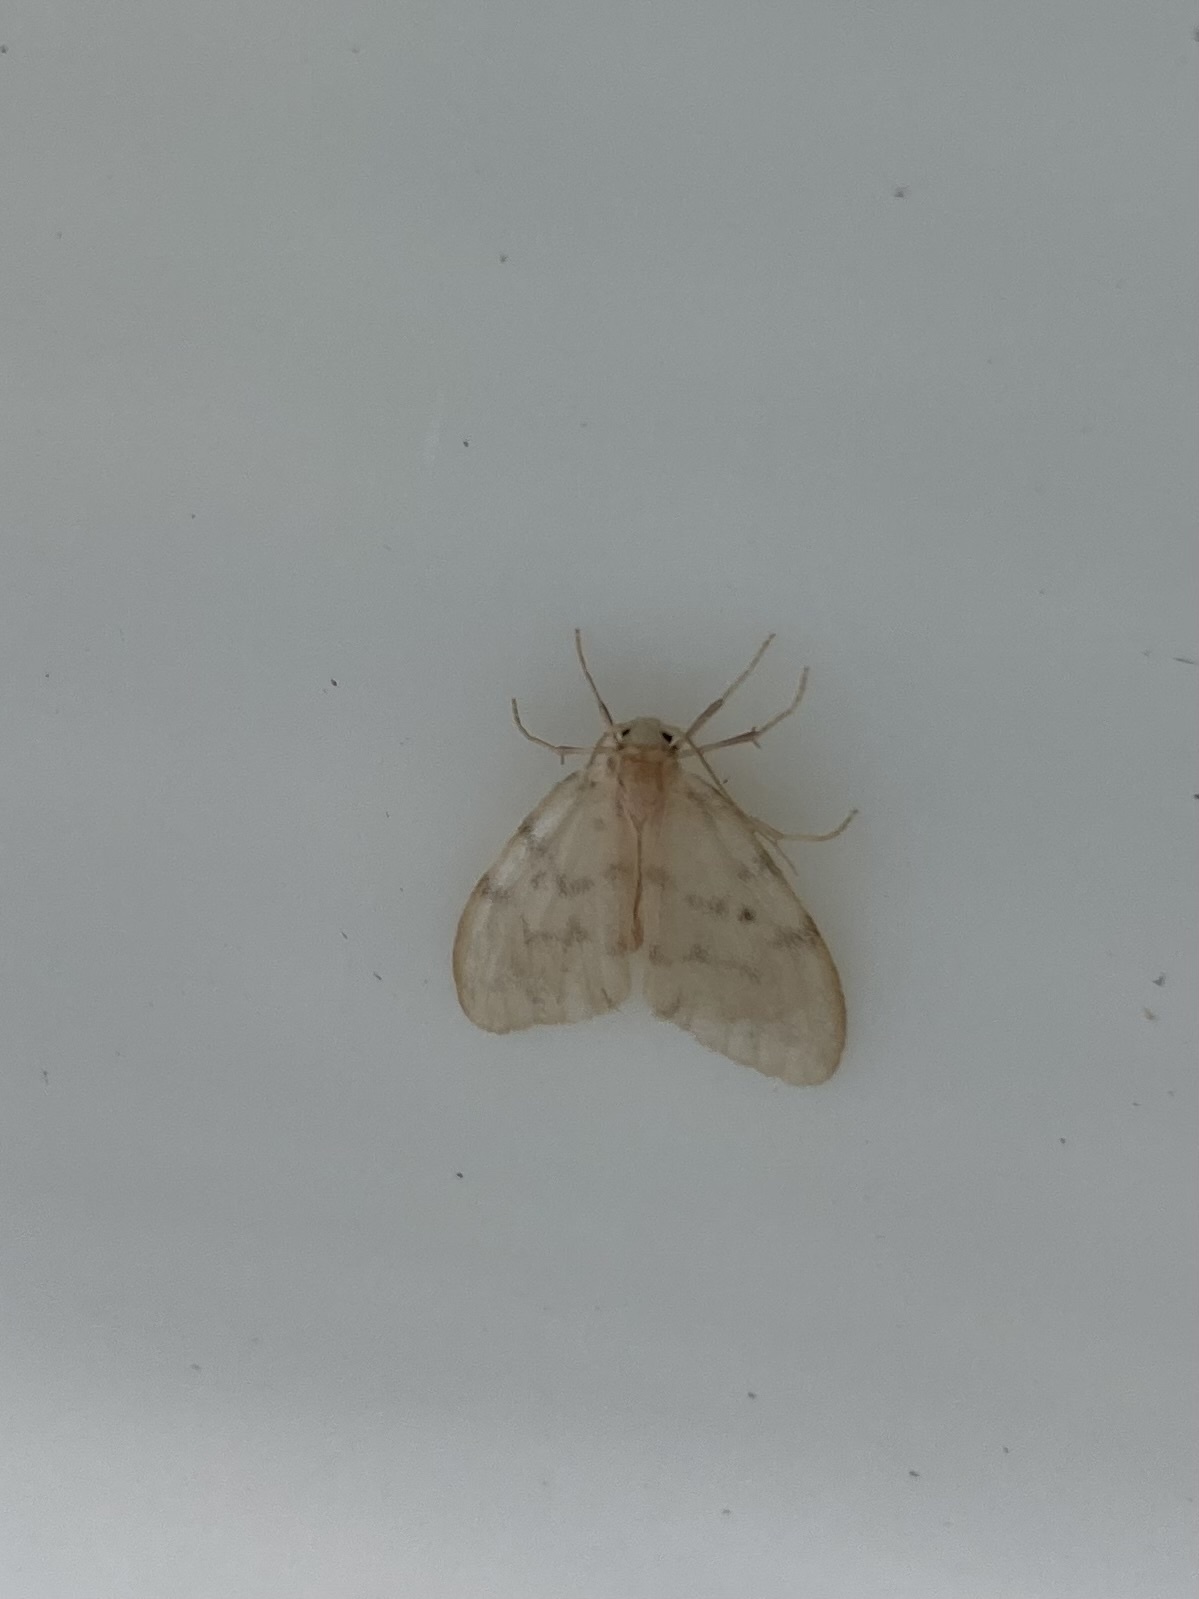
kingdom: Animalia
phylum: Arthropoda
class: Insecta
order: Lepidoptera
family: Erebidae
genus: Nudaria
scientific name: Nudaria mundana
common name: Muslin footman
